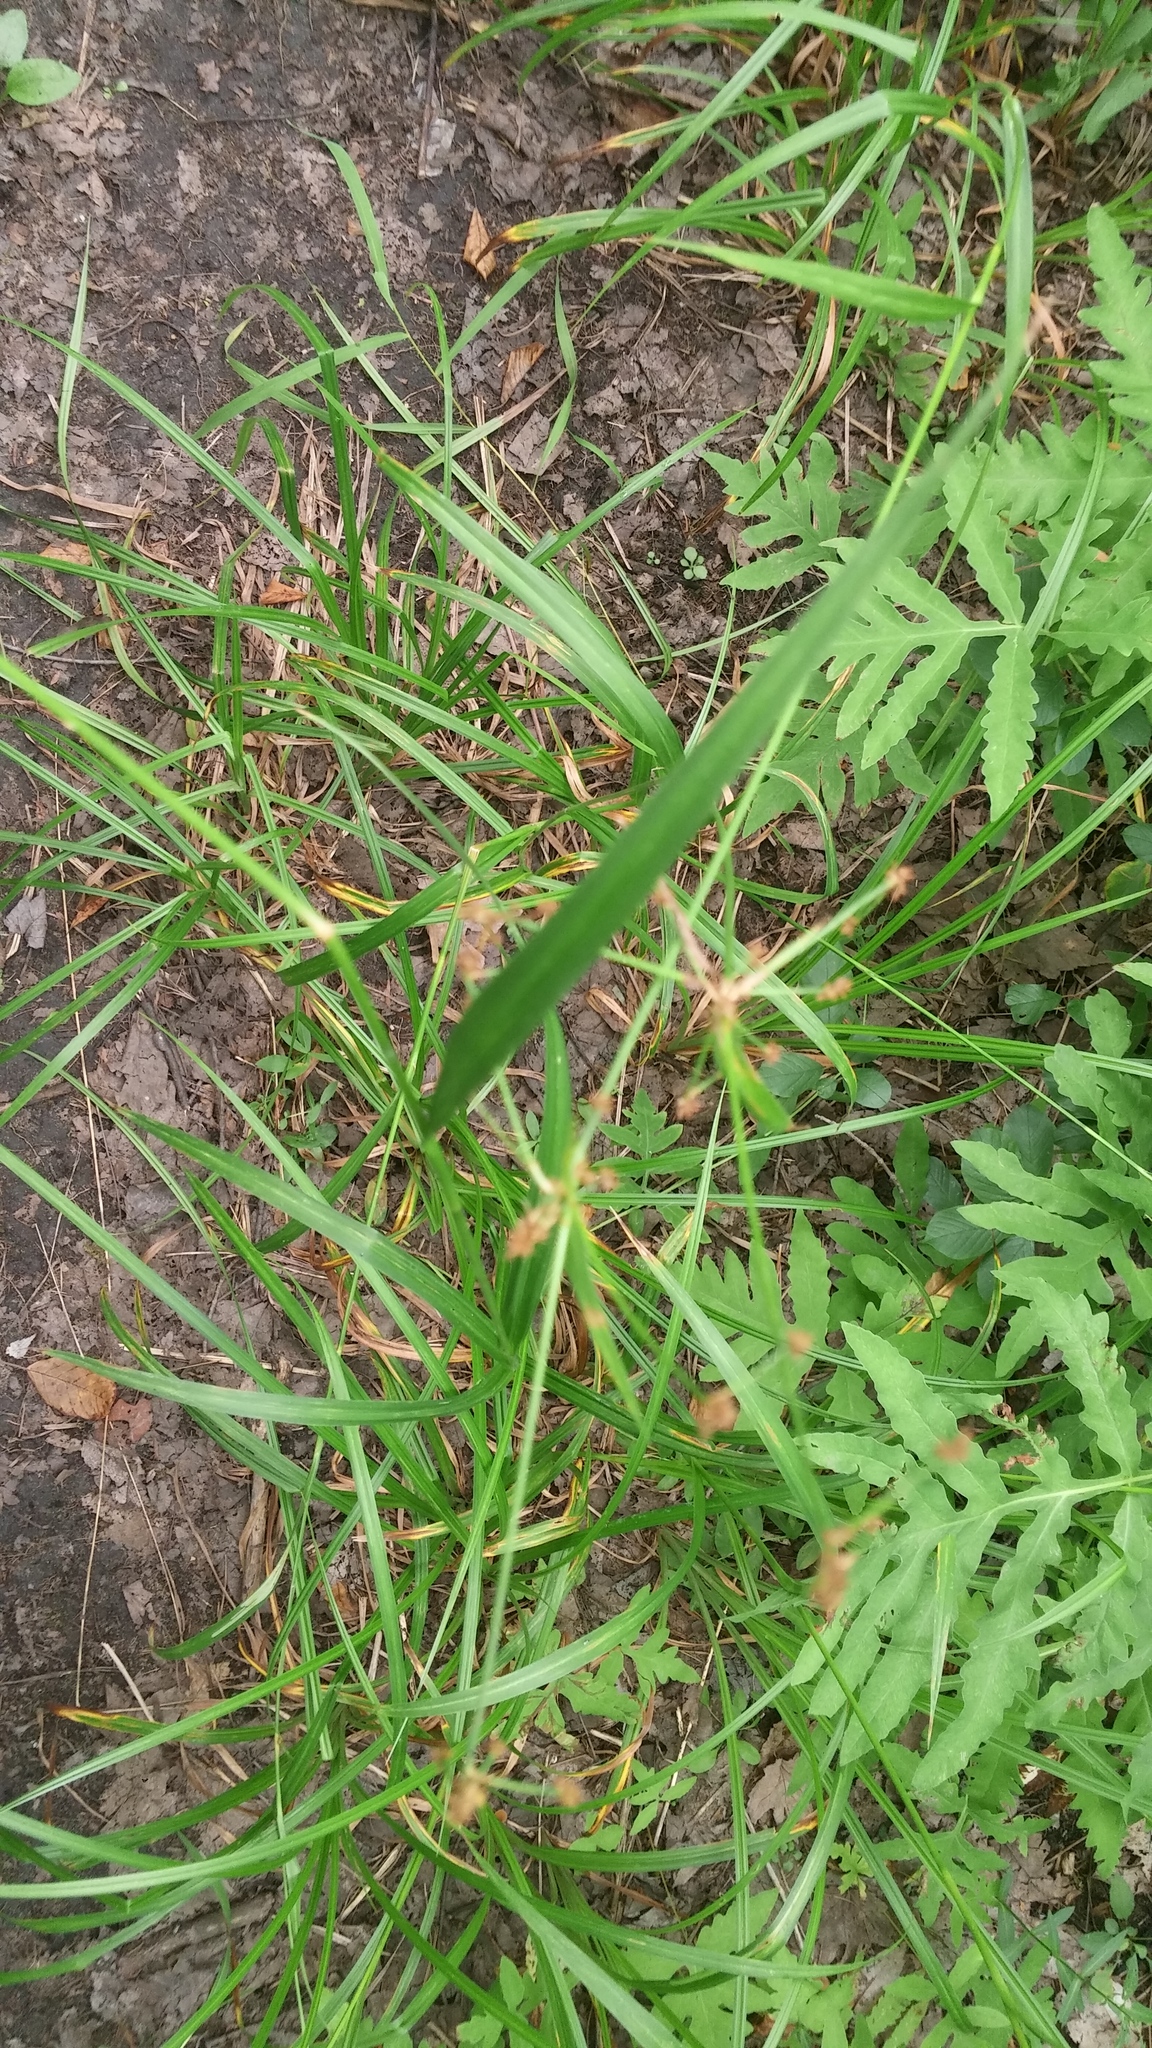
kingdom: Plantae
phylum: Tracheophyta
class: Liliopsida
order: Poales
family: Cyperaceae
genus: Scirpus
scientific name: Scirpus hattorianus
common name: Early dark-green bulrush
